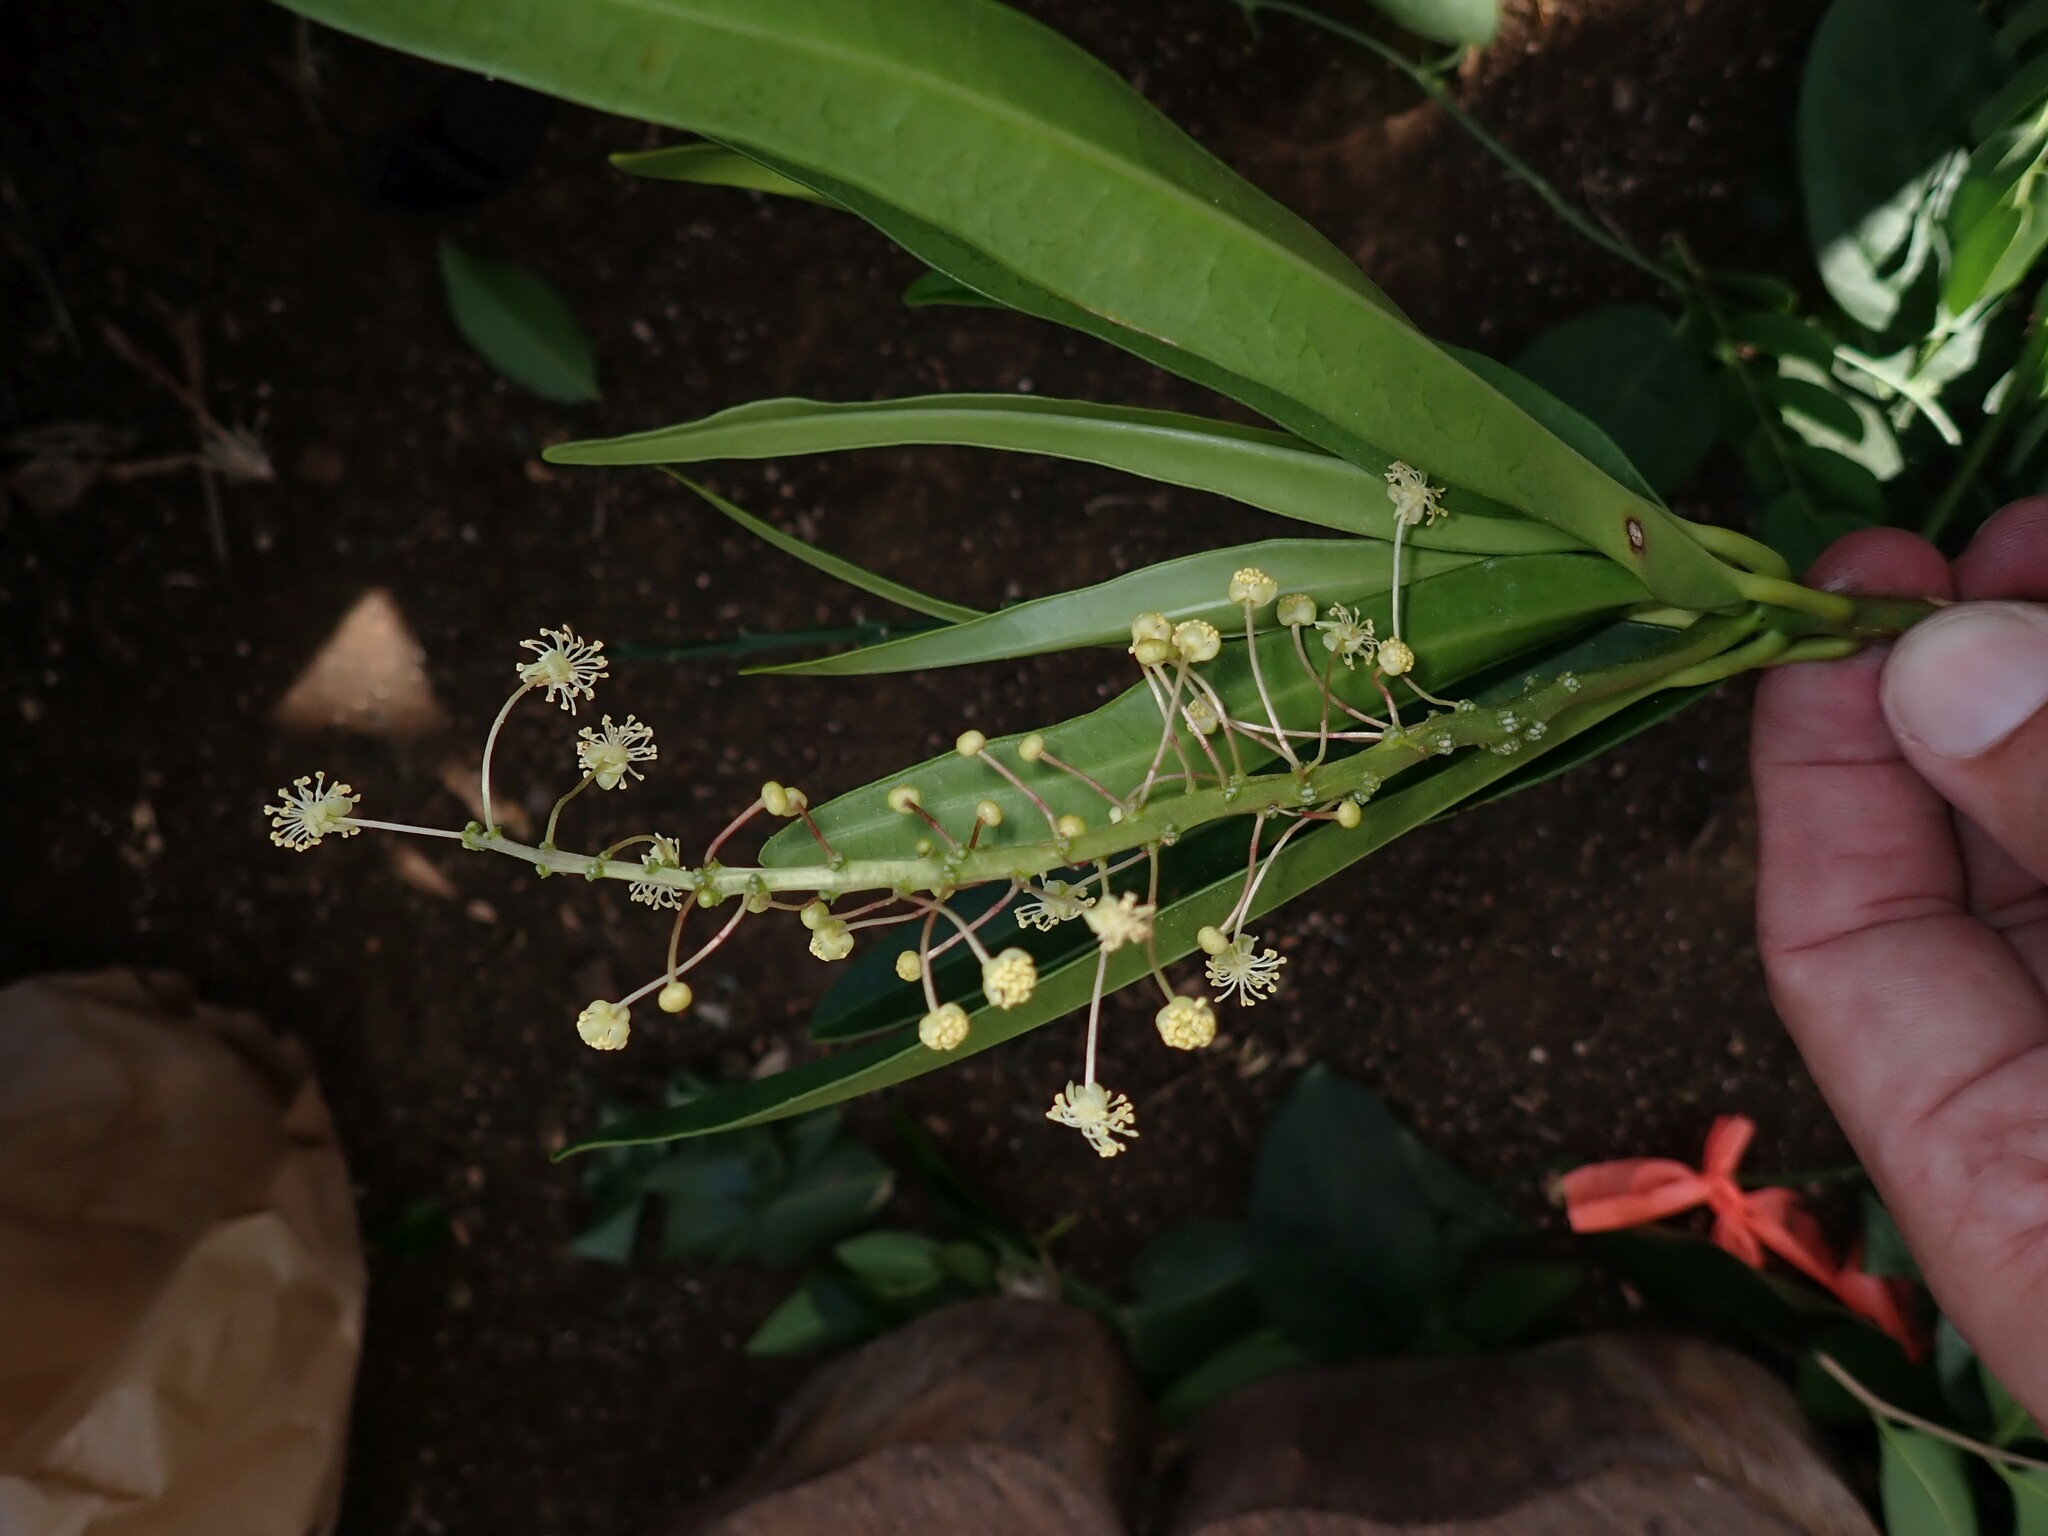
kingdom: Plantae
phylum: Tracheophyta
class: Magnoliopsida
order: Malpighiales
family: Euphorbiaceae
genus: Codiaeum
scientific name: Codiaeum variegatum
